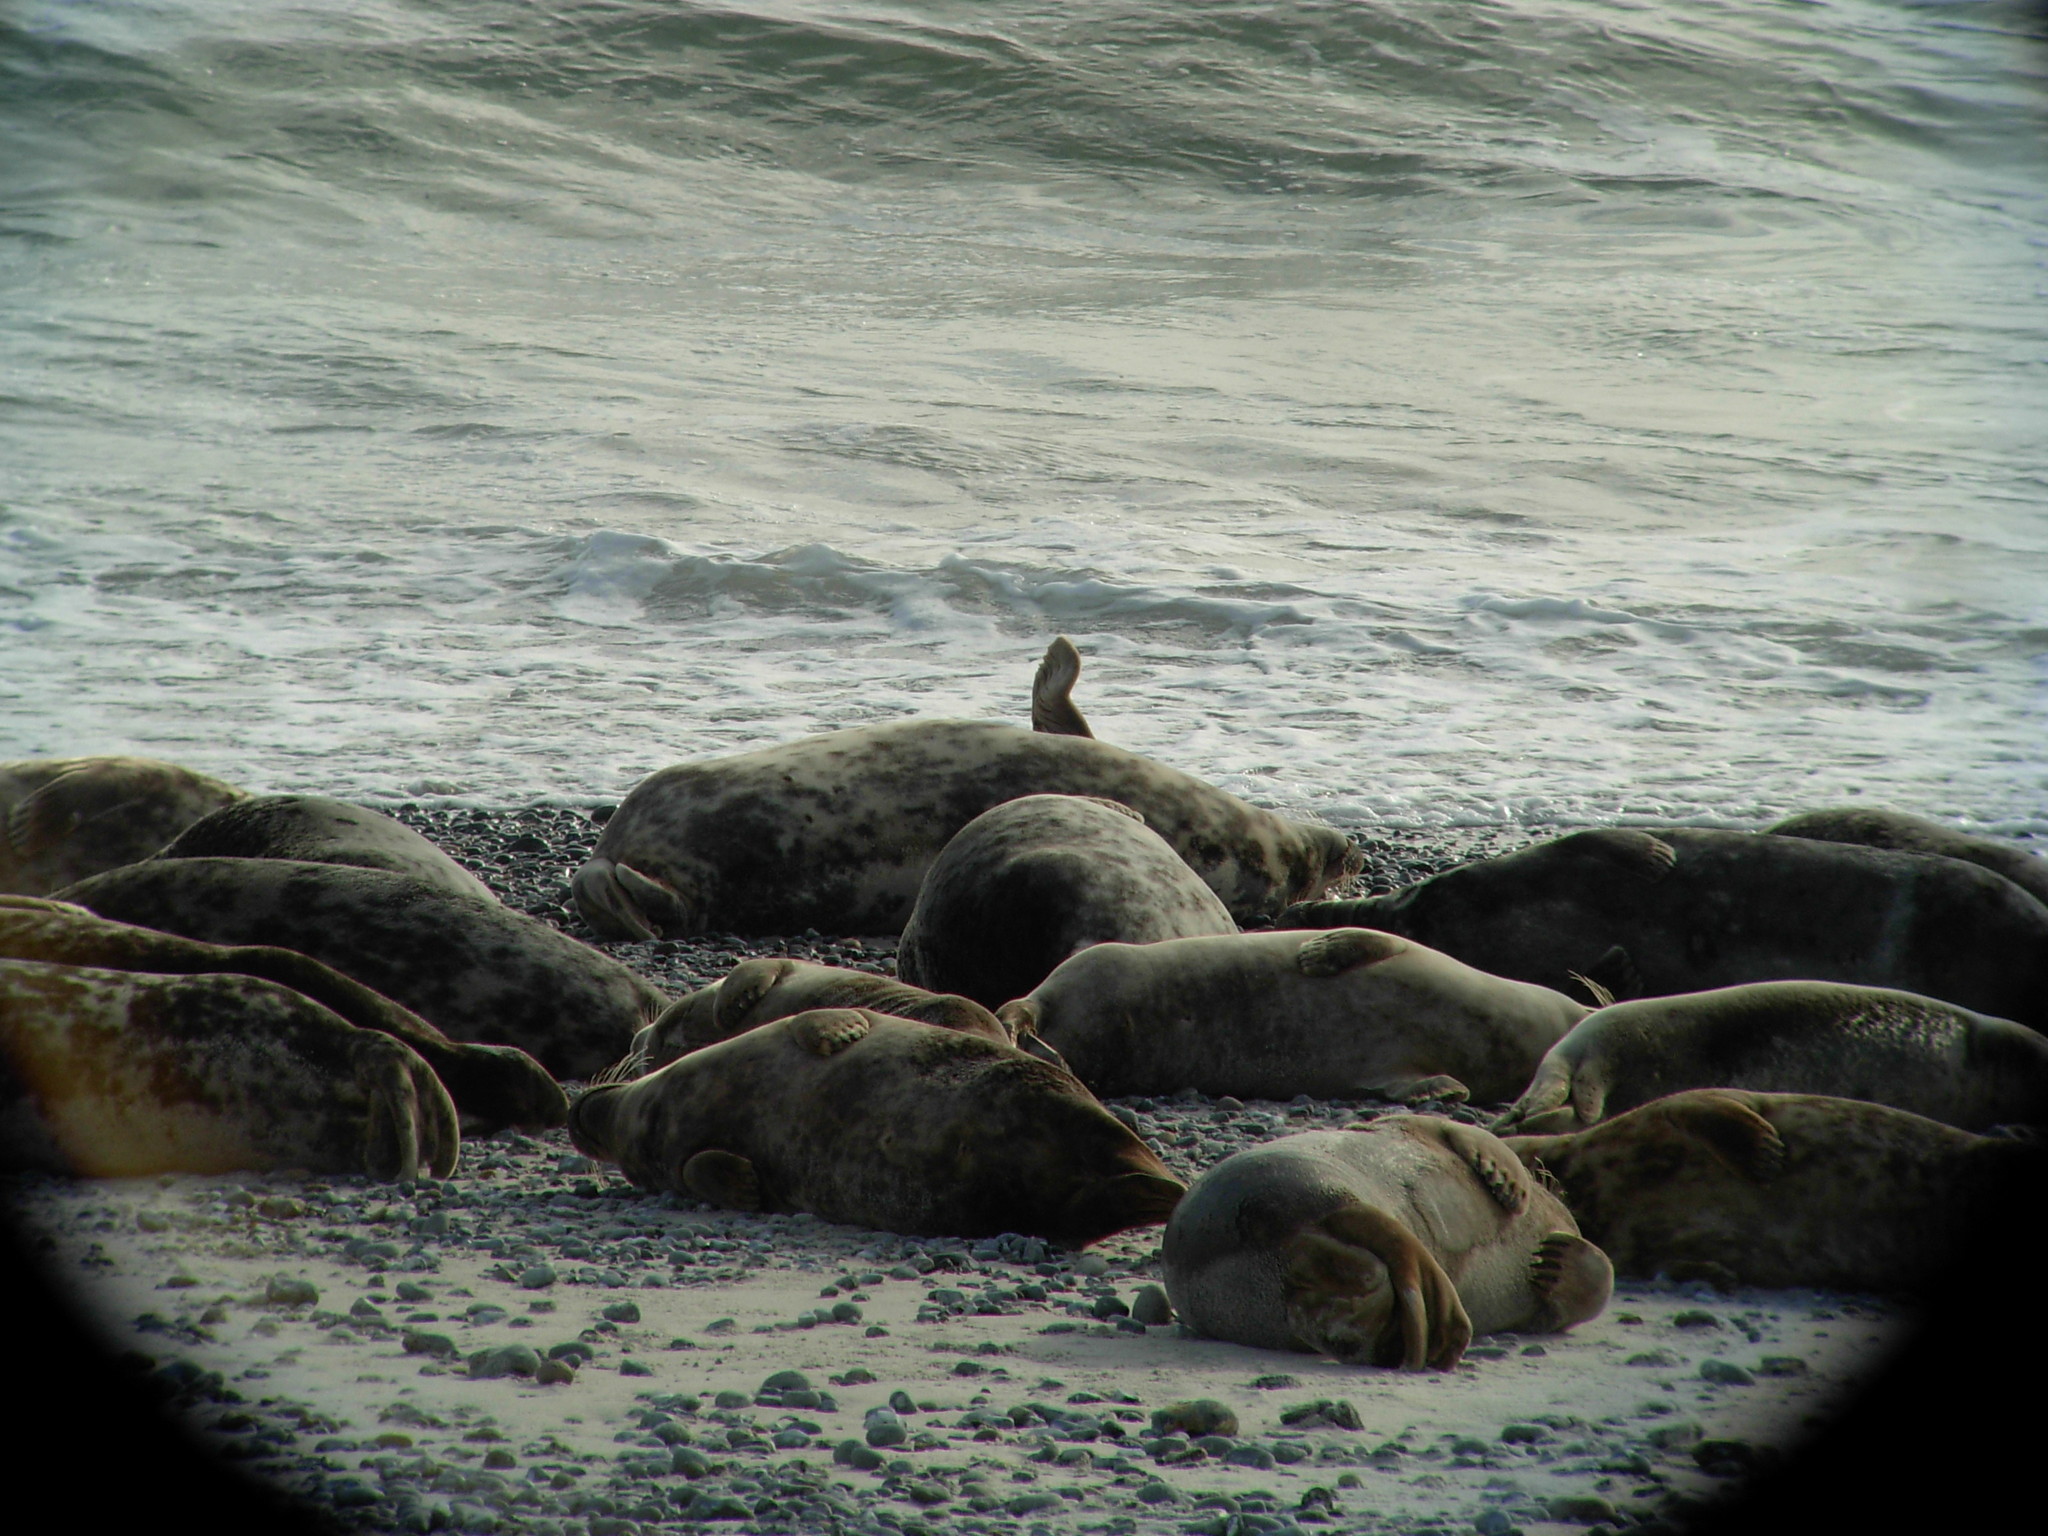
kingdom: Animalia
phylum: Chordata
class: Mammalia
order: Carnivora
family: Phocidae
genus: Halichoerus
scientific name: Halichoerus grypus
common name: Grey seal
